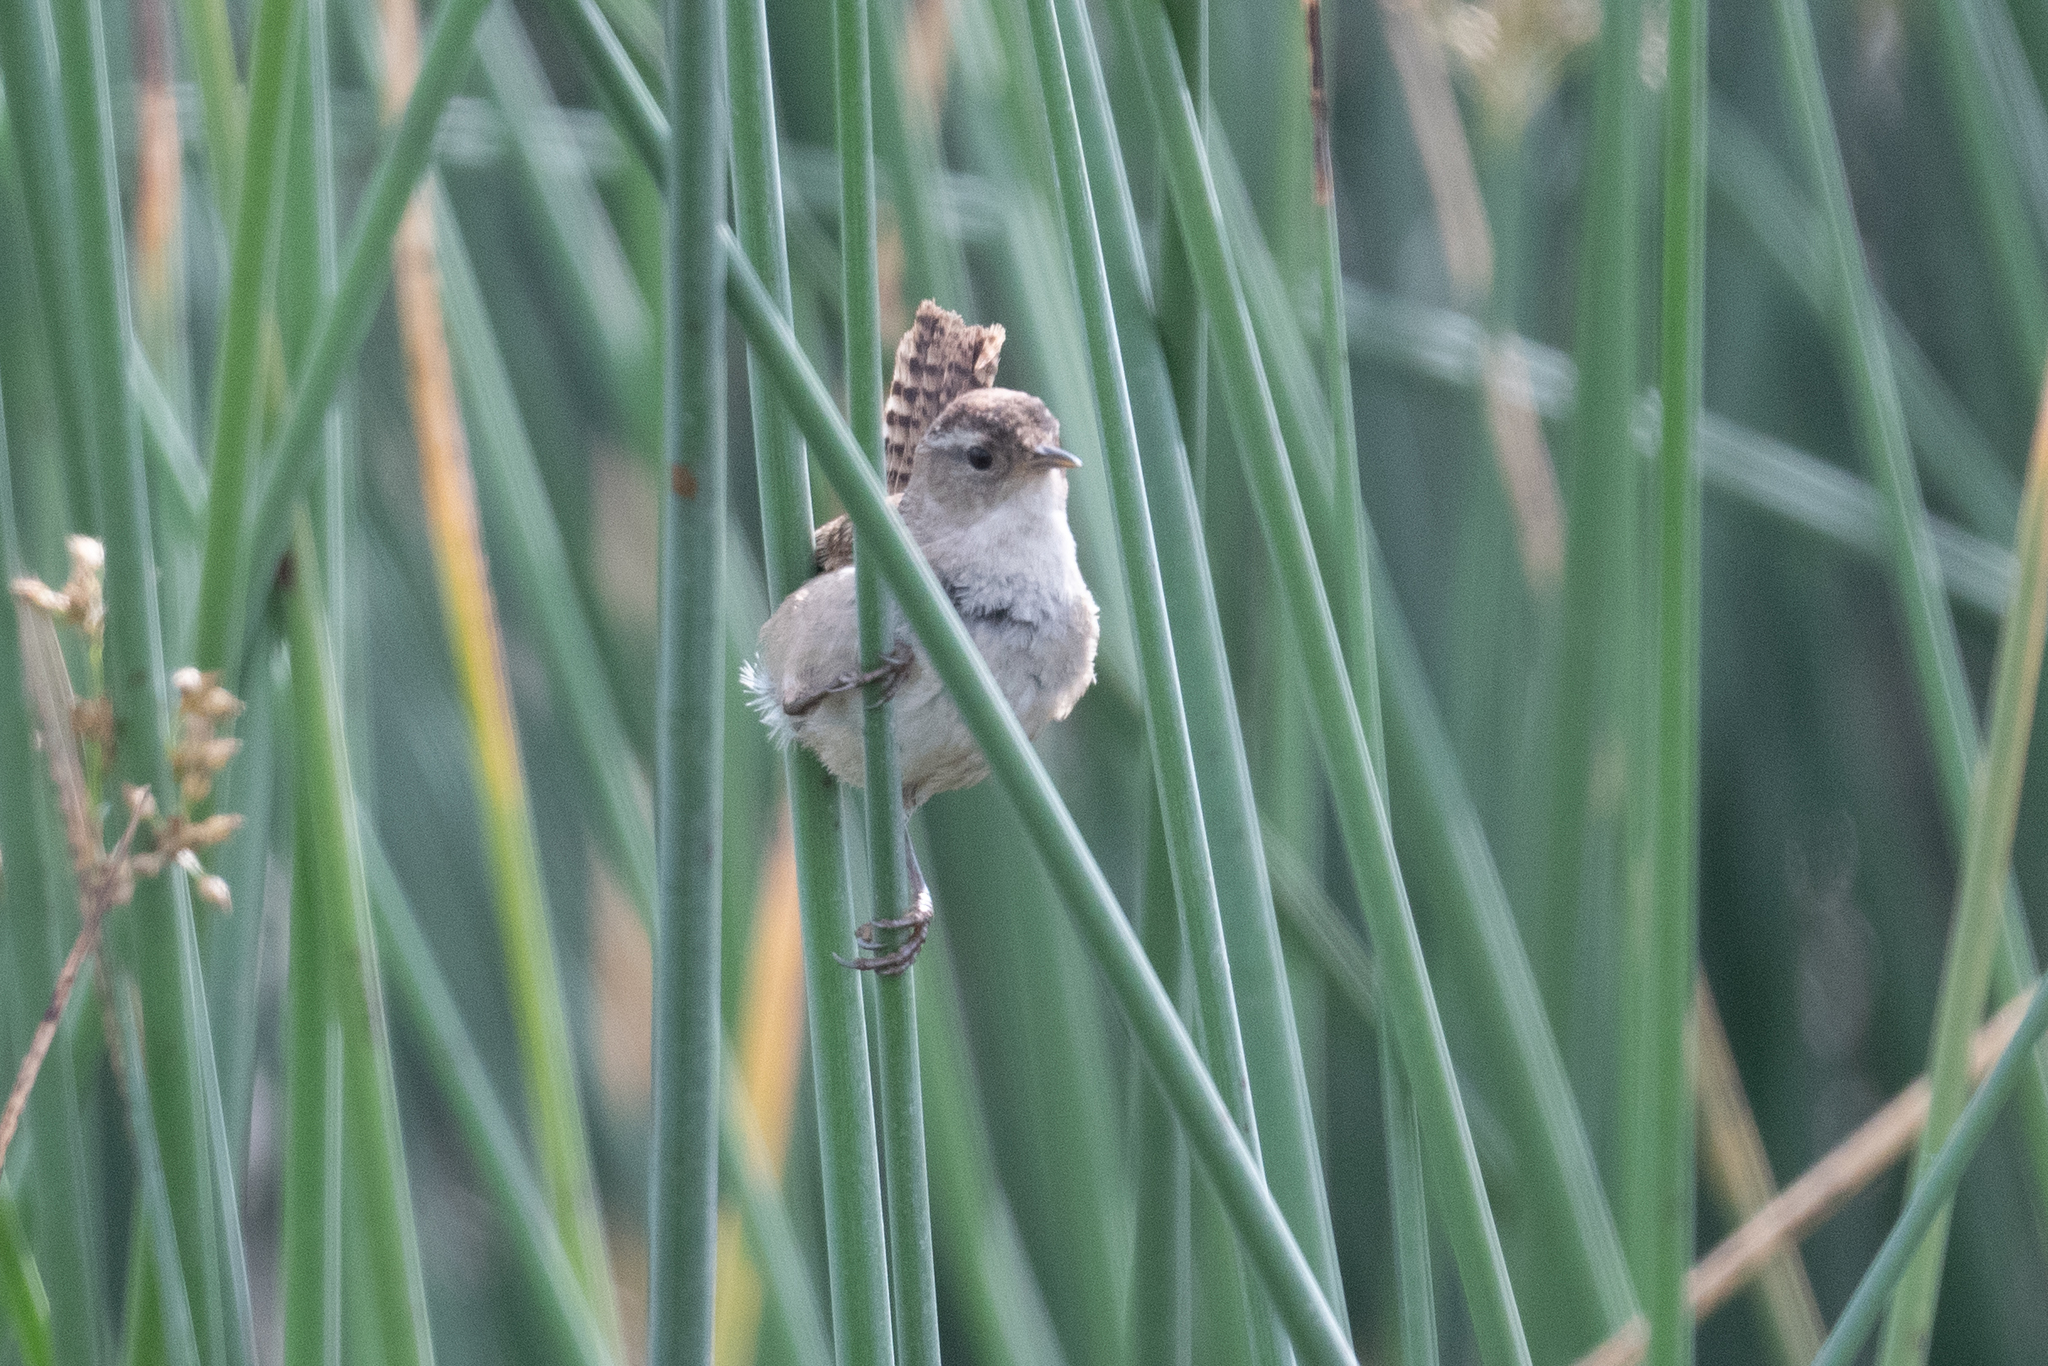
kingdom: Animalia
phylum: Chordata
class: Aves
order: Passeriformes
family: Troglodytidae
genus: Cistothorus
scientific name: Cistothorus palustris
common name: Marsh wren
